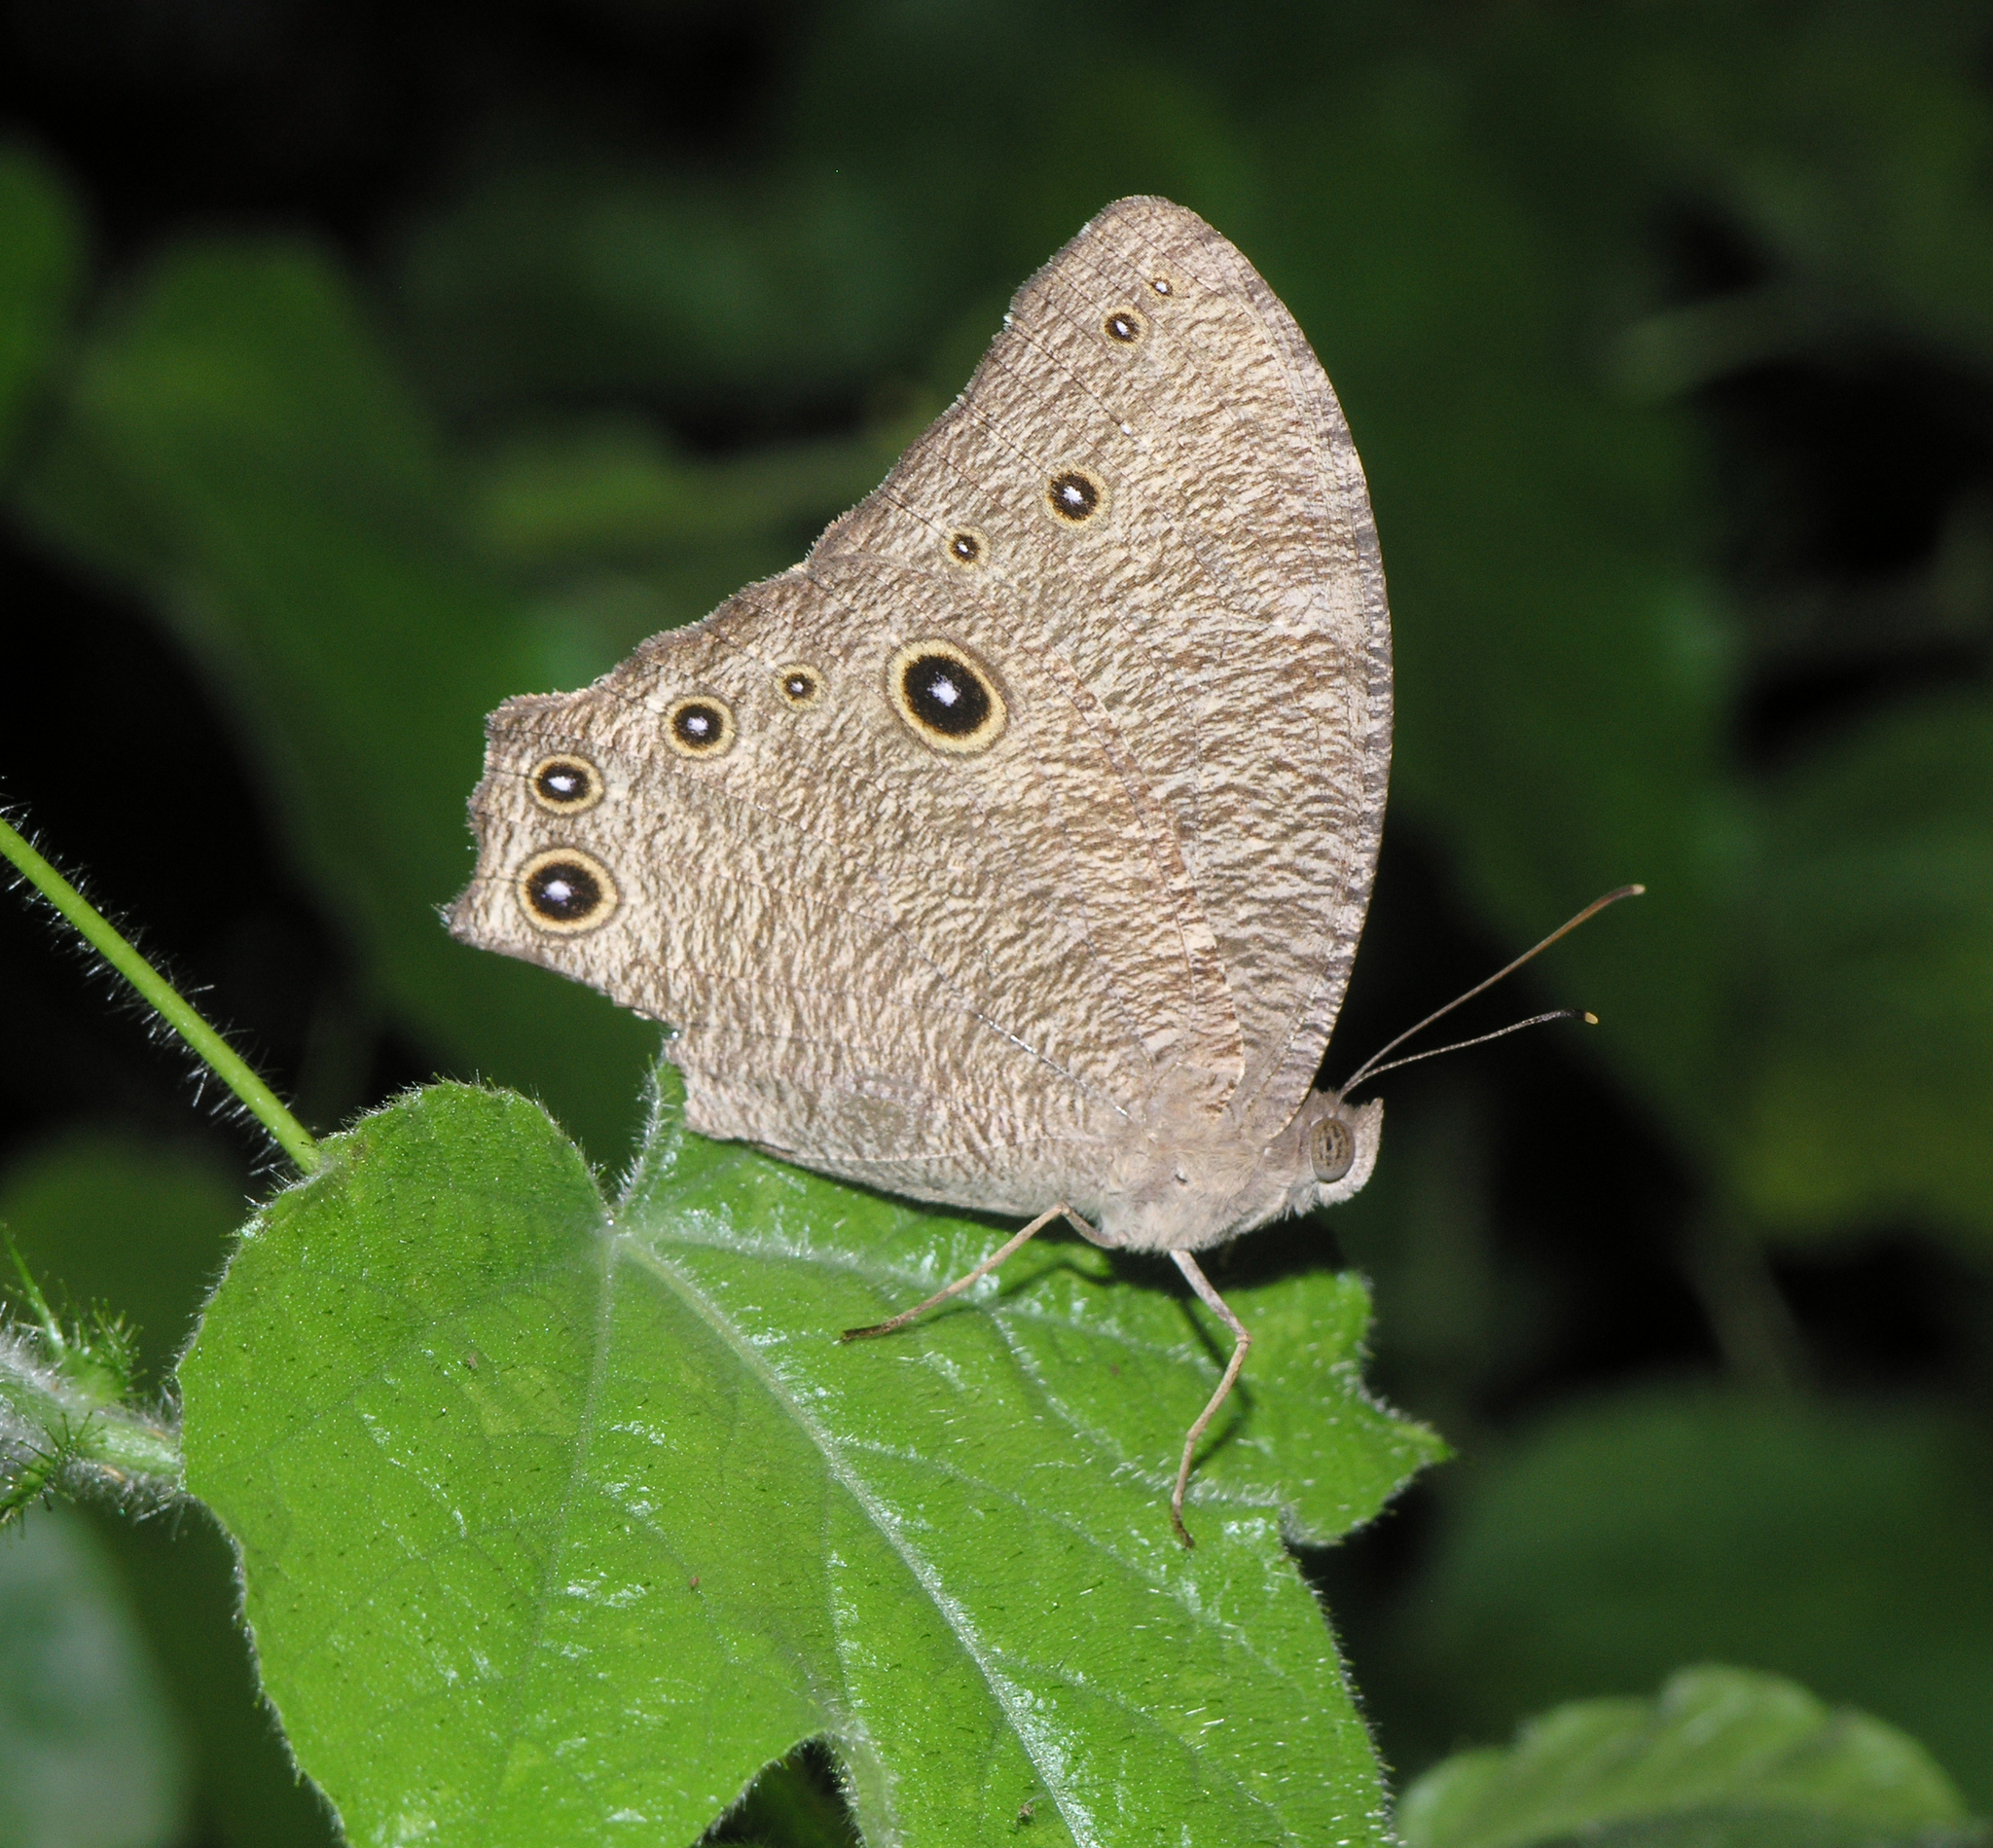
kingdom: Animalia
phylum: Arthropoda
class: Insecta
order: Lepidoptera
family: Nymphalidae
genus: Melanitis
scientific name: Melanitis leda
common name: Twilight brown
